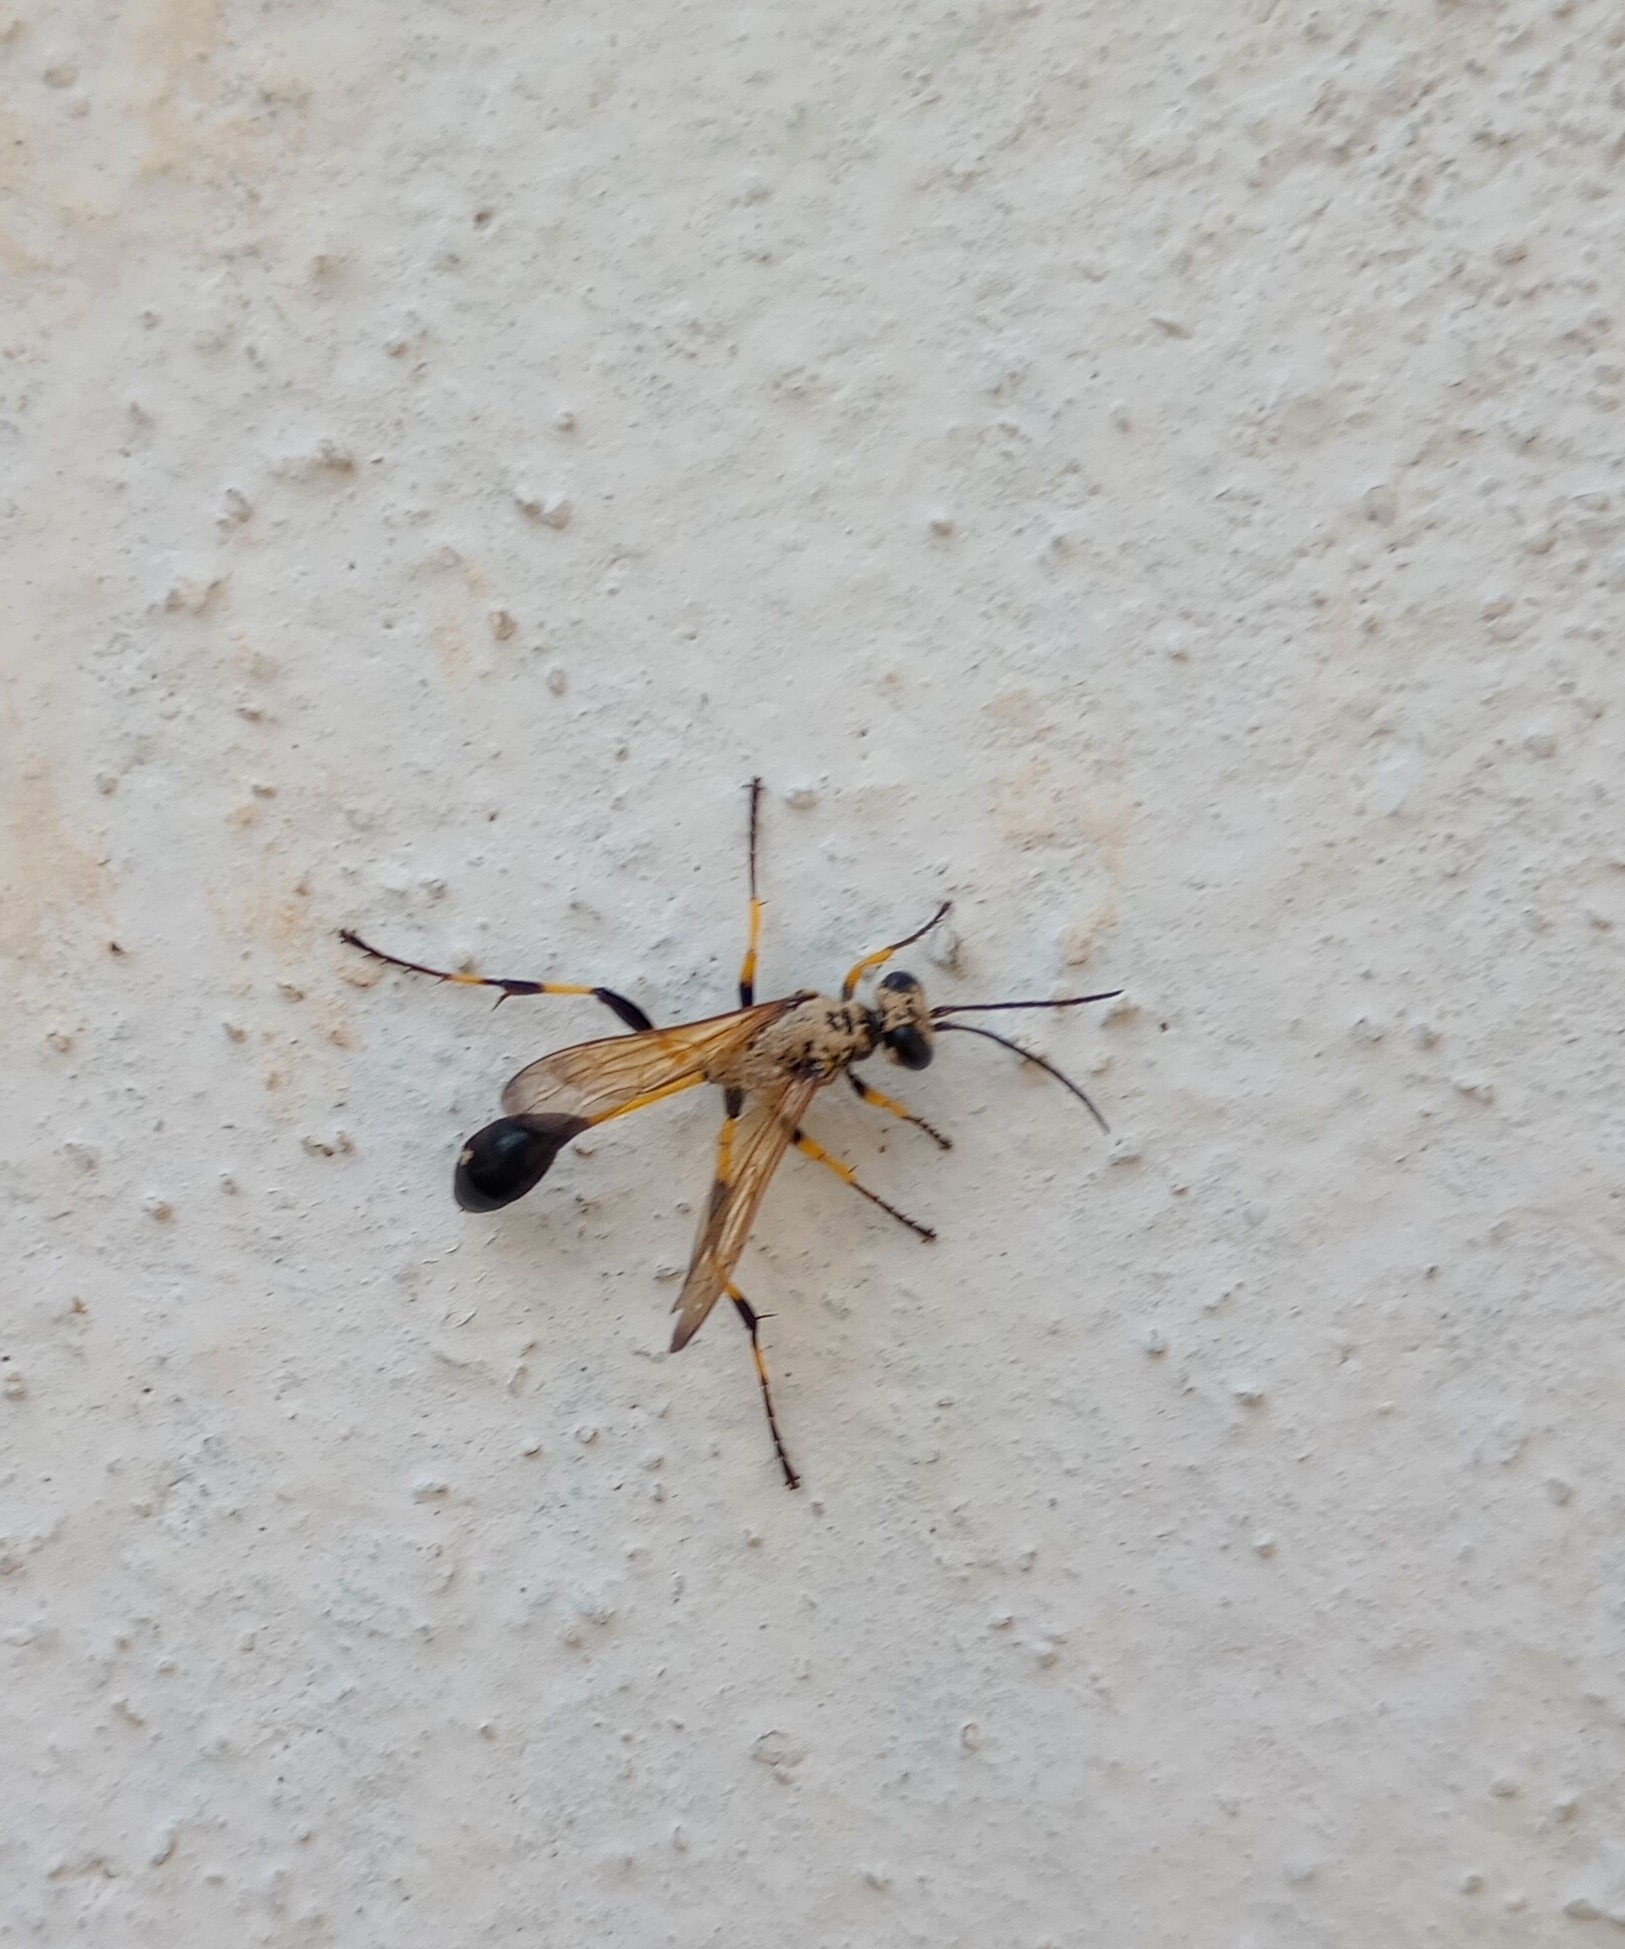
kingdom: Animalia
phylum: Arthropoda
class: Insecta
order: Hymenoptera
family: Sphecidae
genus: Sceliphron
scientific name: Sceliphron madraspatanum
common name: Mud dauber
